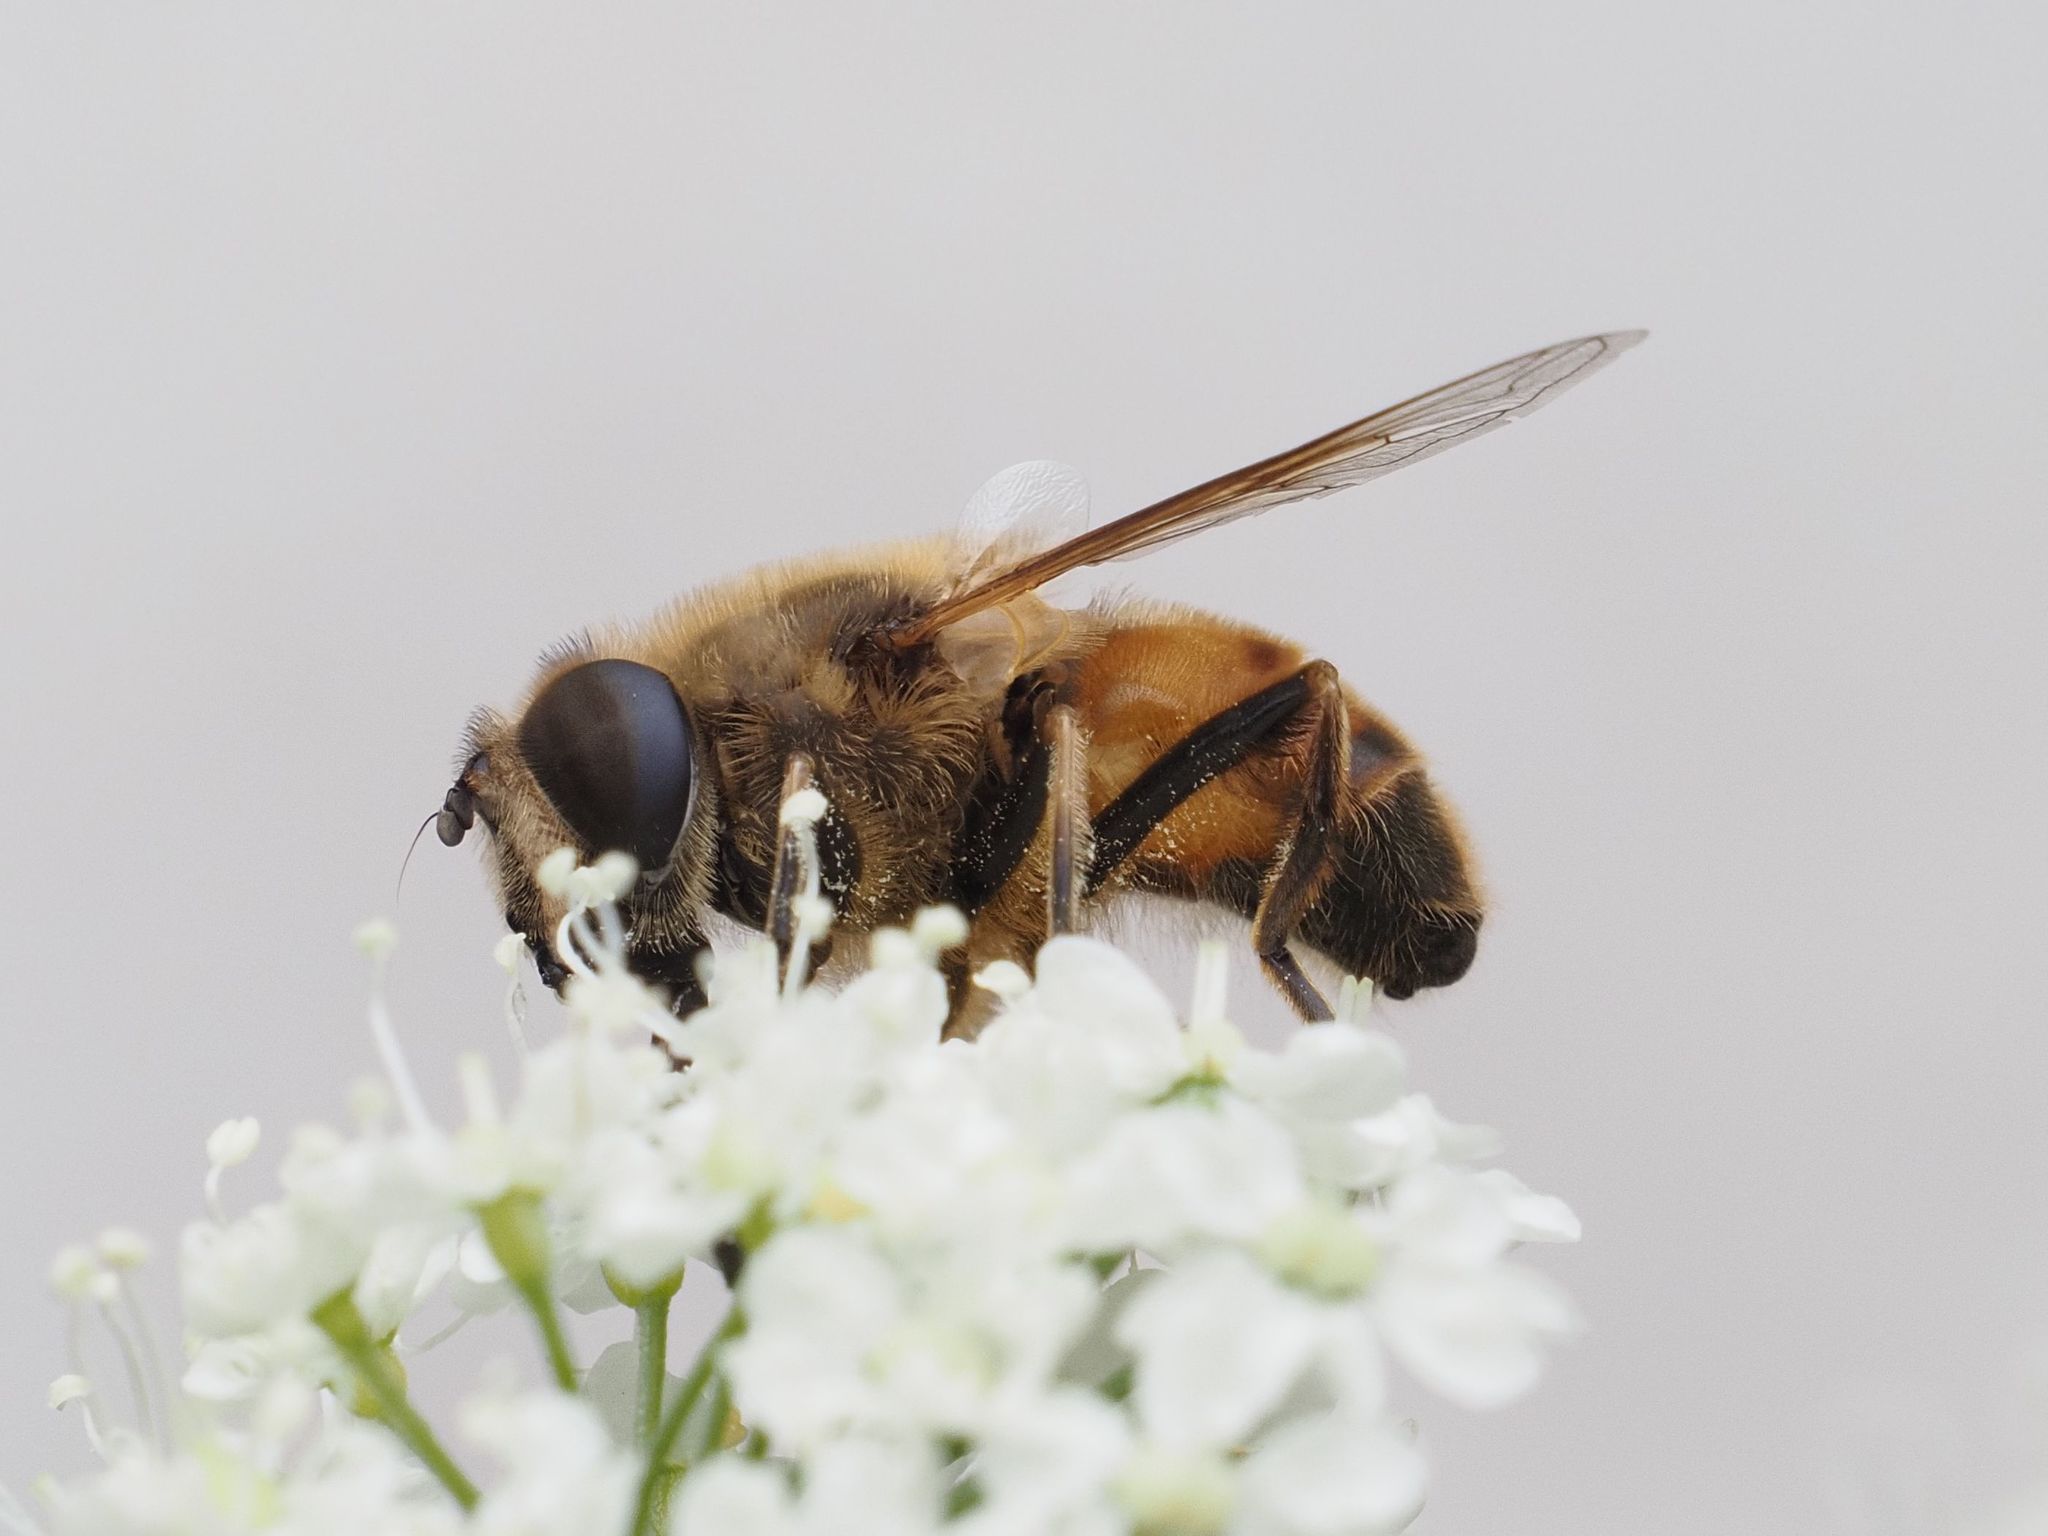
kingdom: Animalia
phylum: Arthropoda
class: Insecta
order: Diptera
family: Syrphidae
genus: Eristalis
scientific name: Eristalis tenax
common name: Drone fly
